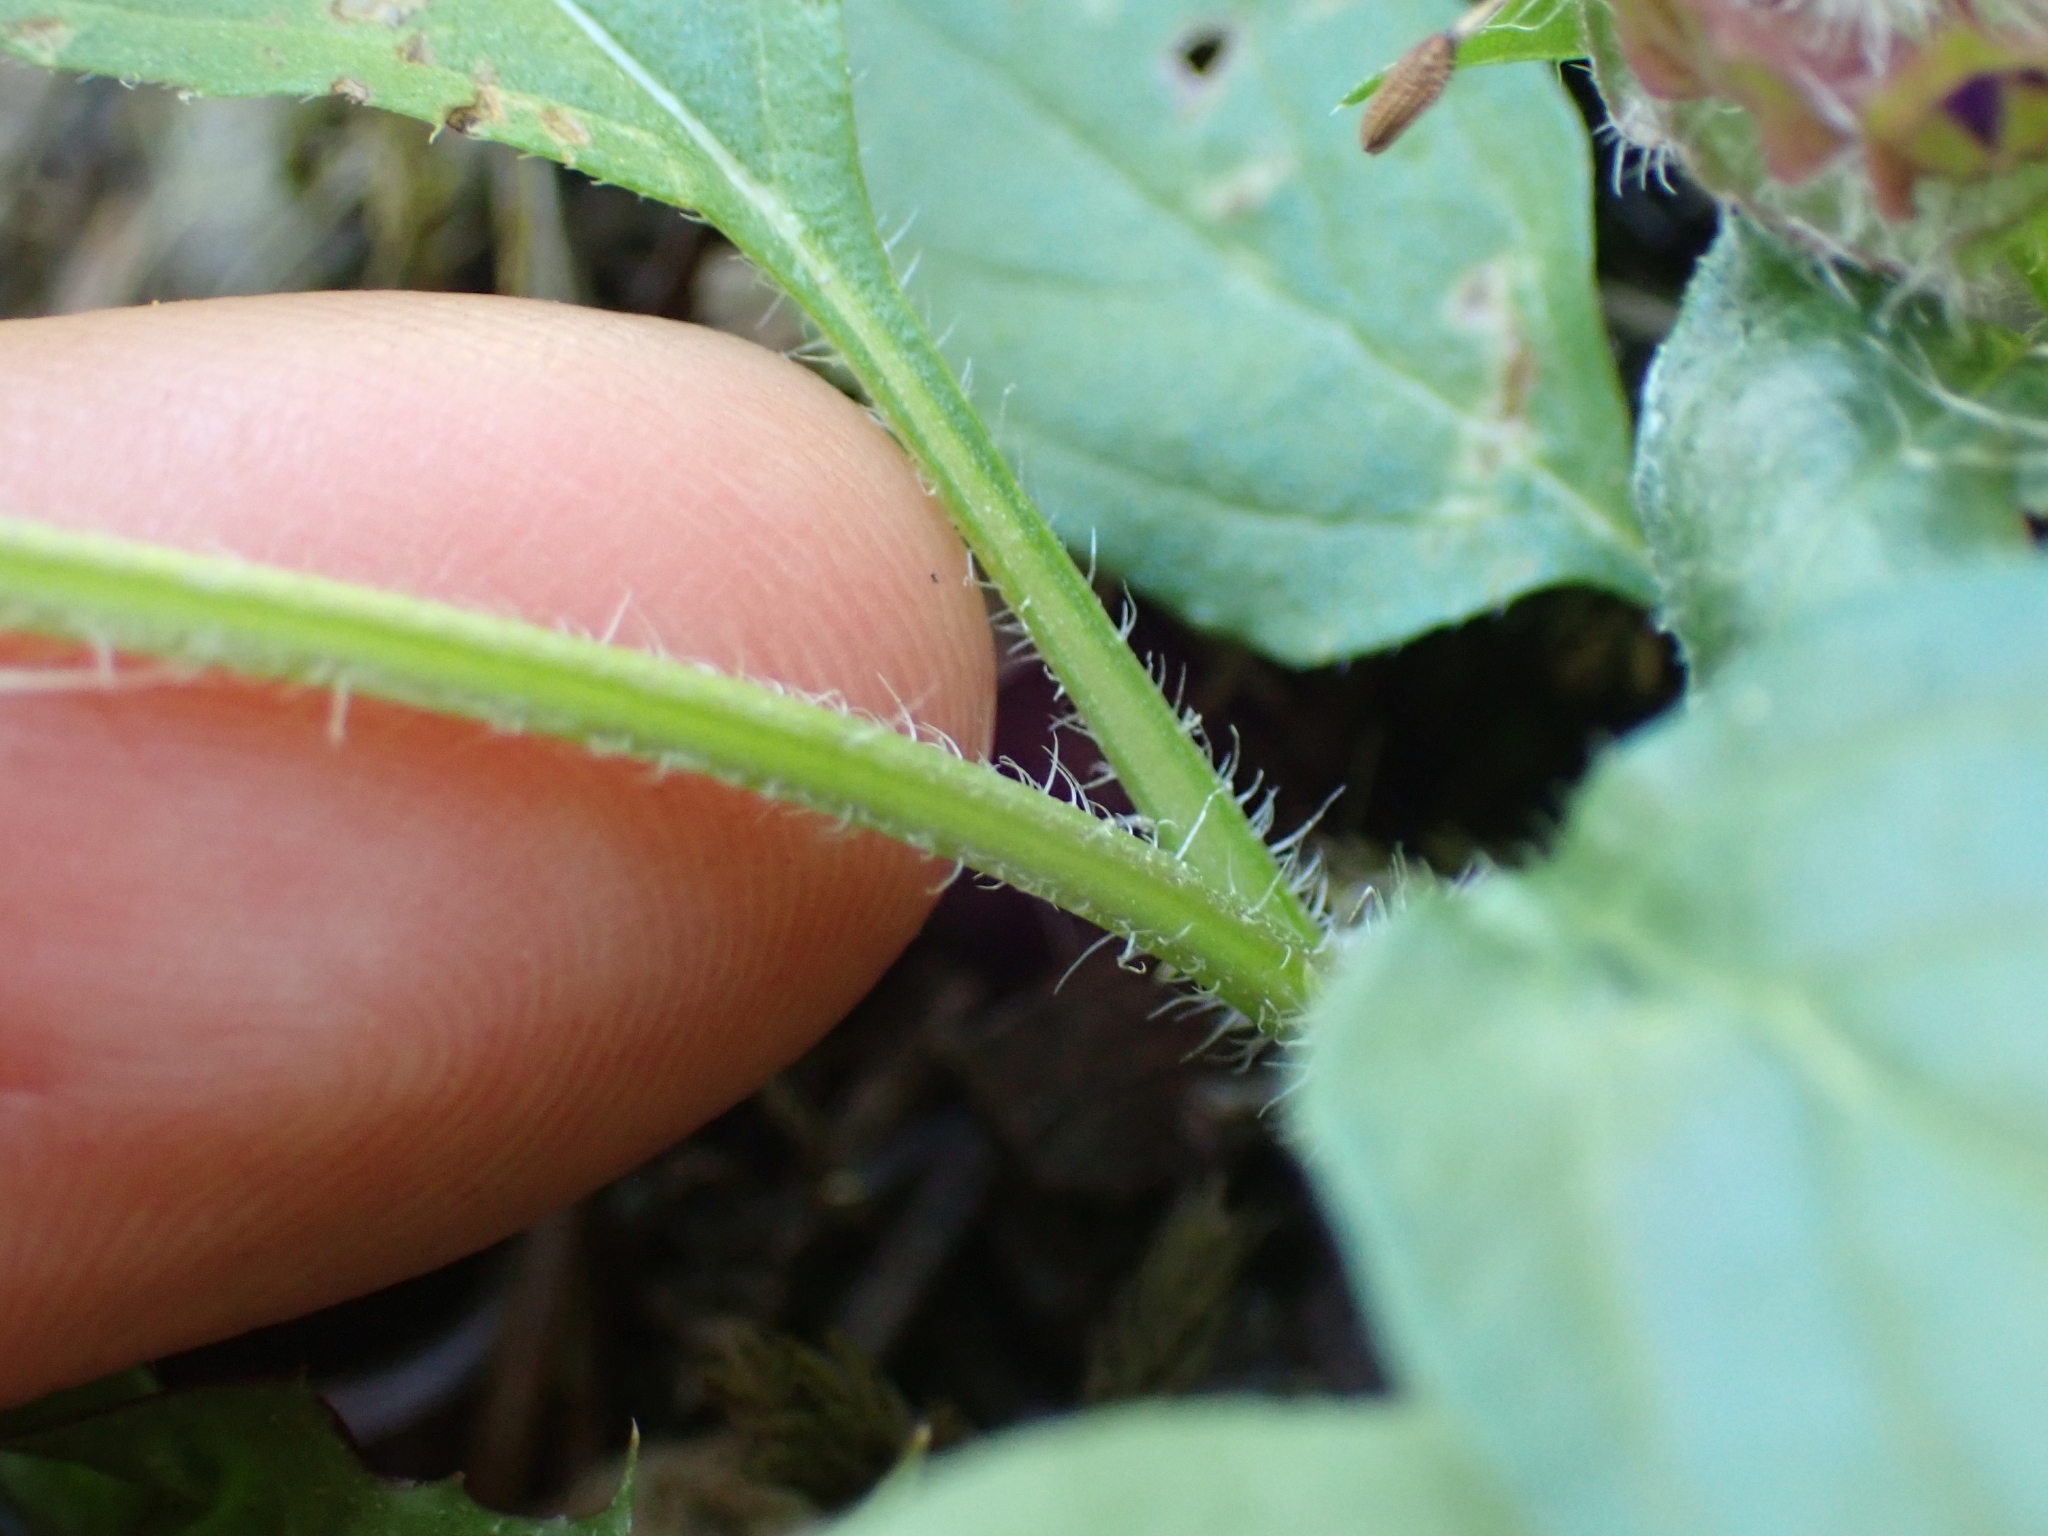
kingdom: Plantae
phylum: Tracheophyta
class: Magnoliopsida
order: Lamiales
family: Lamiaceae
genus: Prunella
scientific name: Prunella vulgaris
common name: Heal-all
